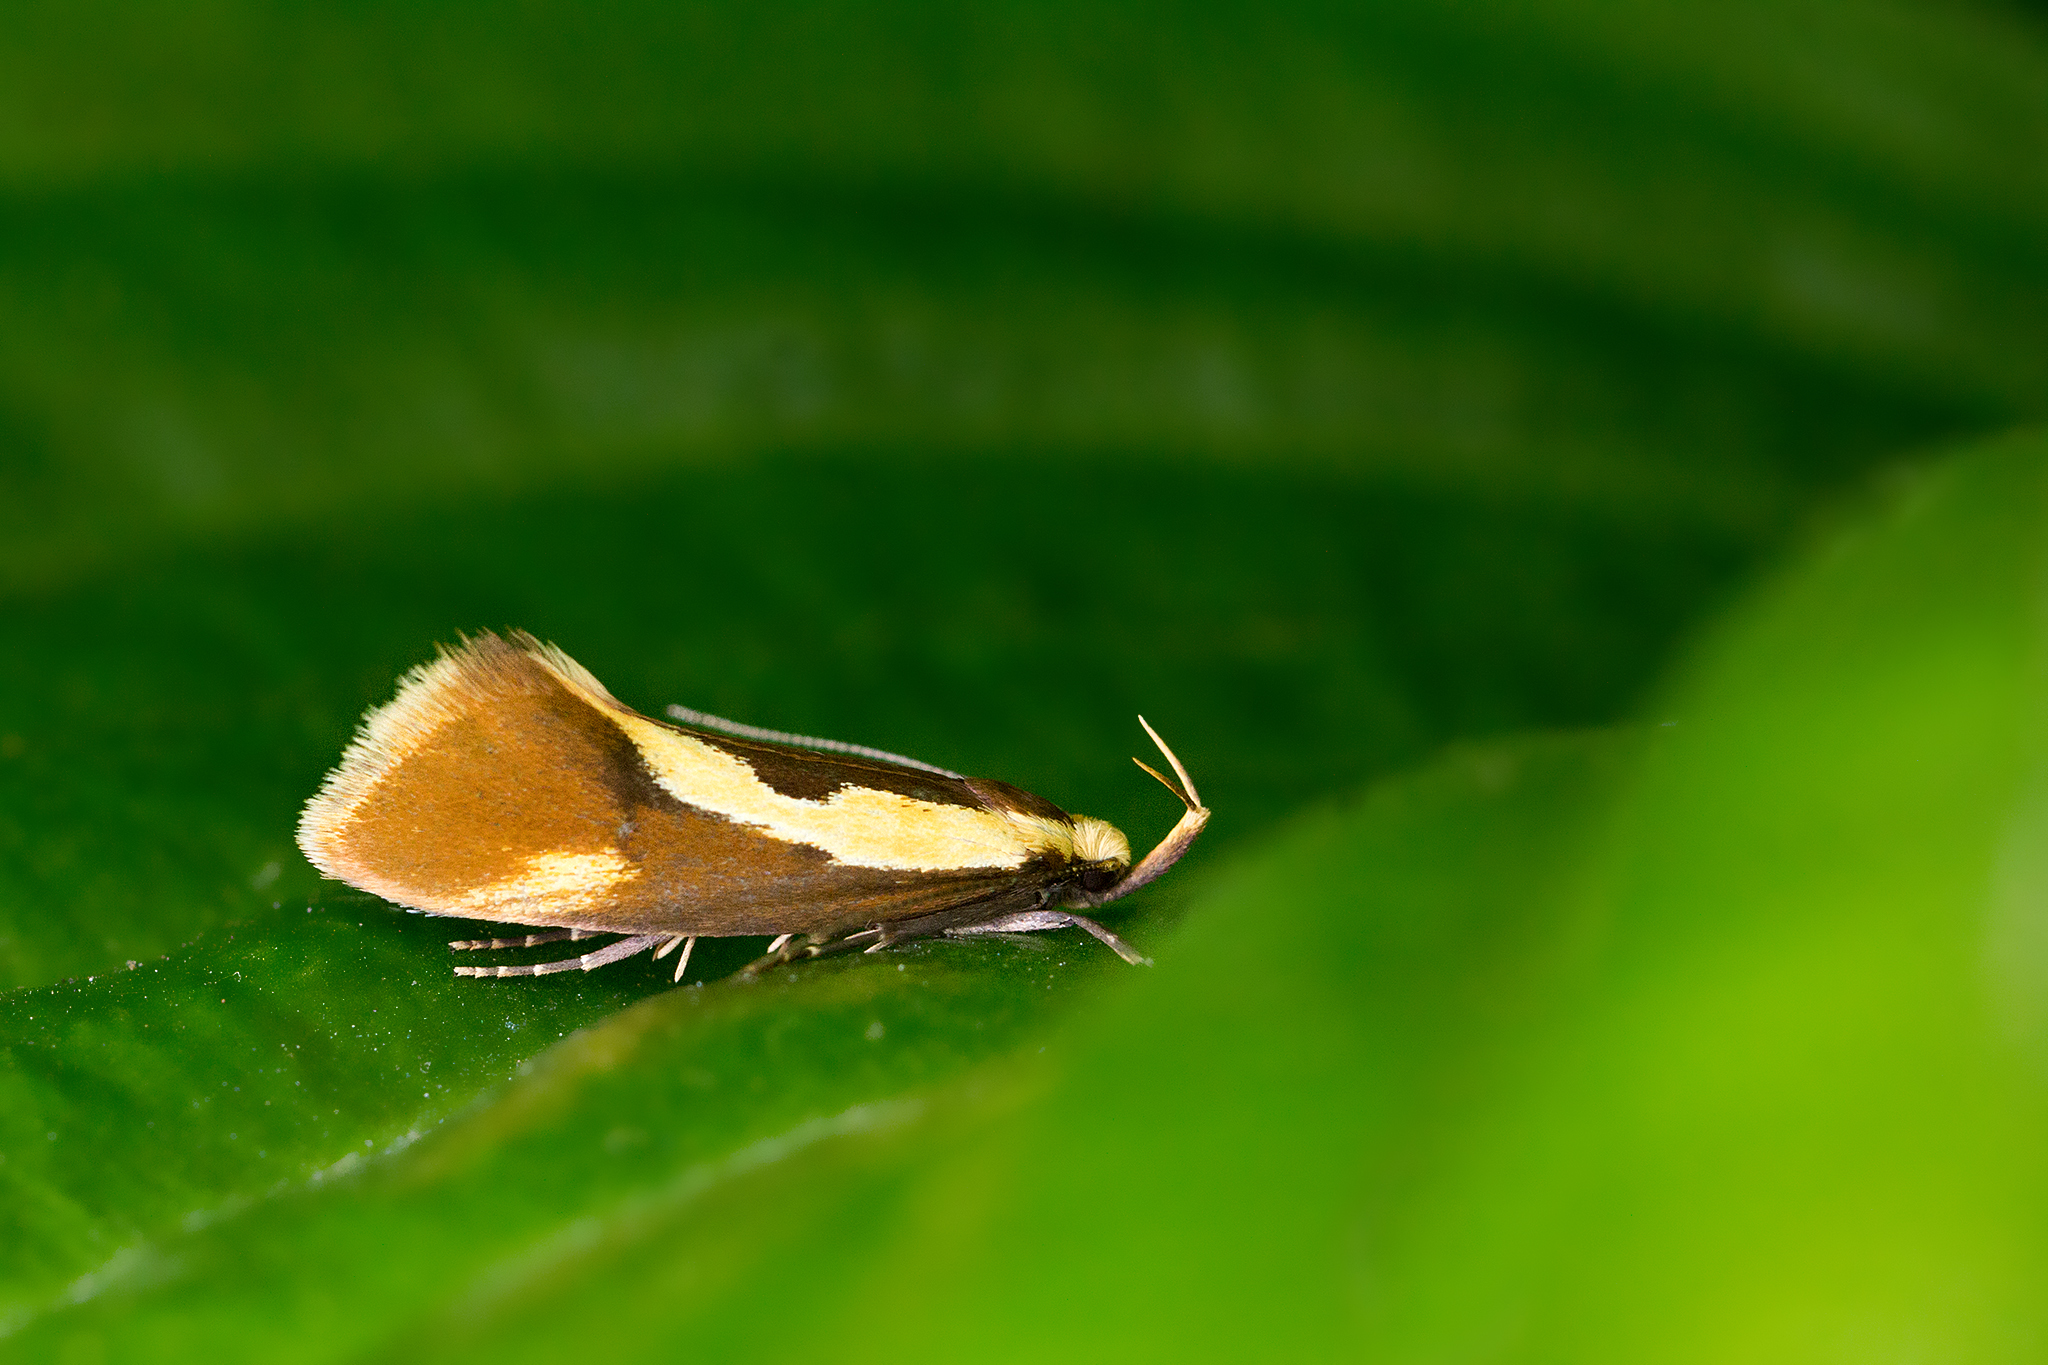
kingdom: Animalia
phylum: Arthropoda
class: Insecta
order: Lepidoptera
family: Oecophoridae
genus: Harpella
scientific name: Harpella forficella
